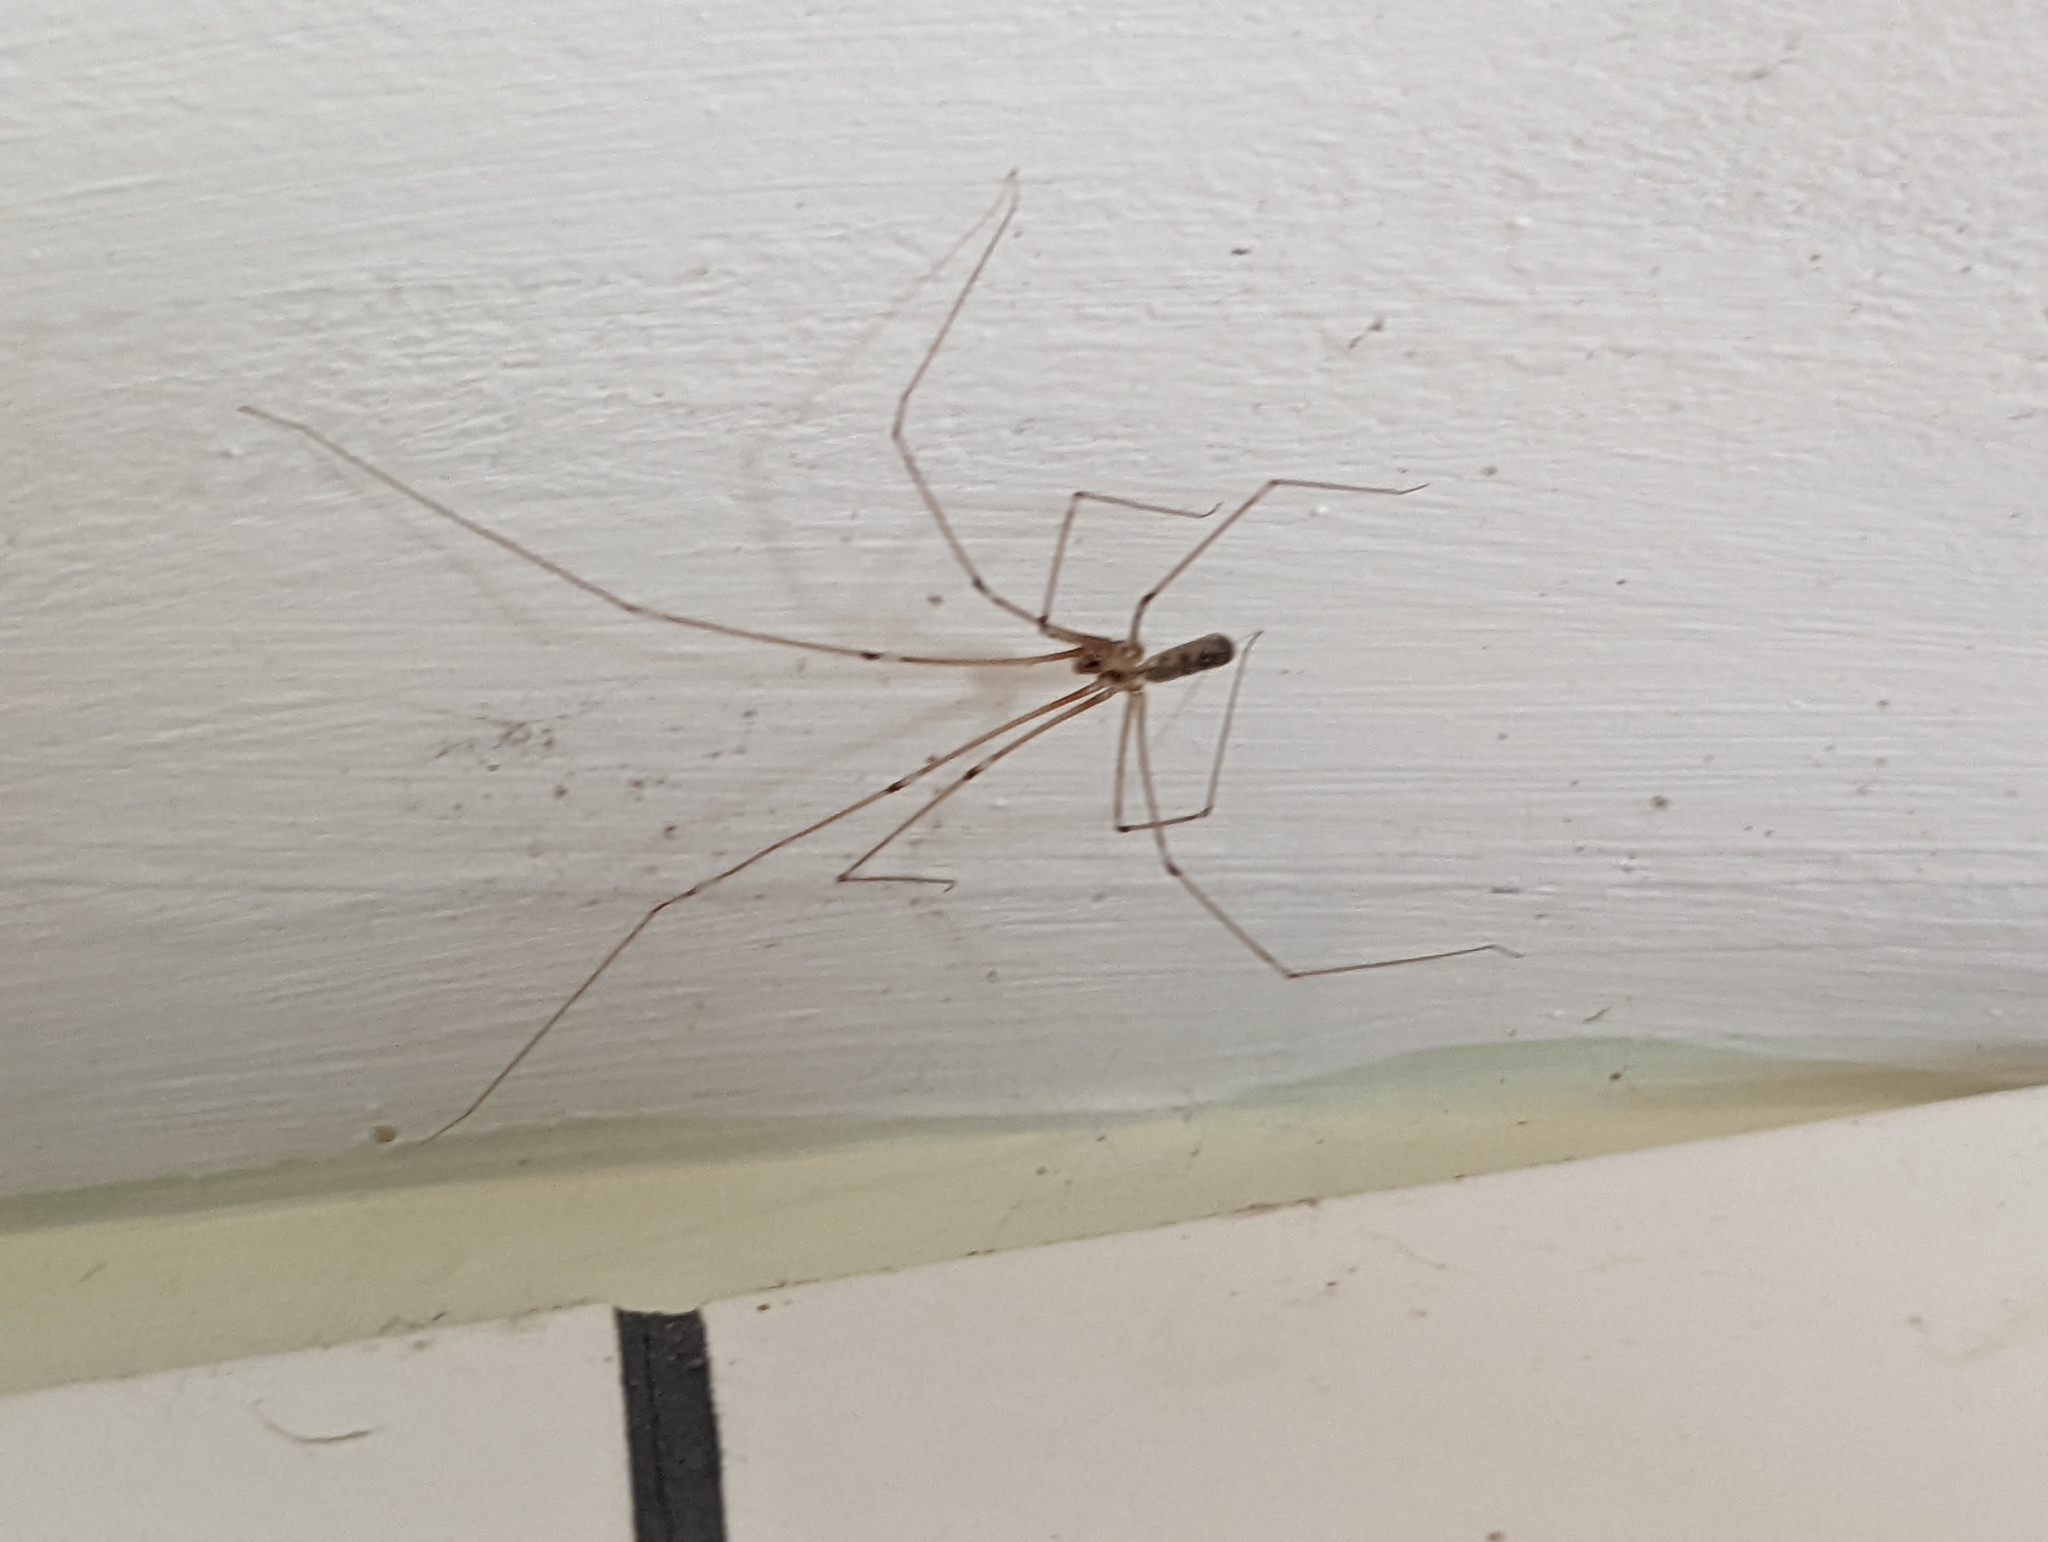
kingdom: Animalia
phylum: Arthropoda
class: Arachnida
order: Araneae
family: Pholcidae
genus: Pholcus
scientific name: Pholcus phalangioides
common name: Longbodied cellar spider
